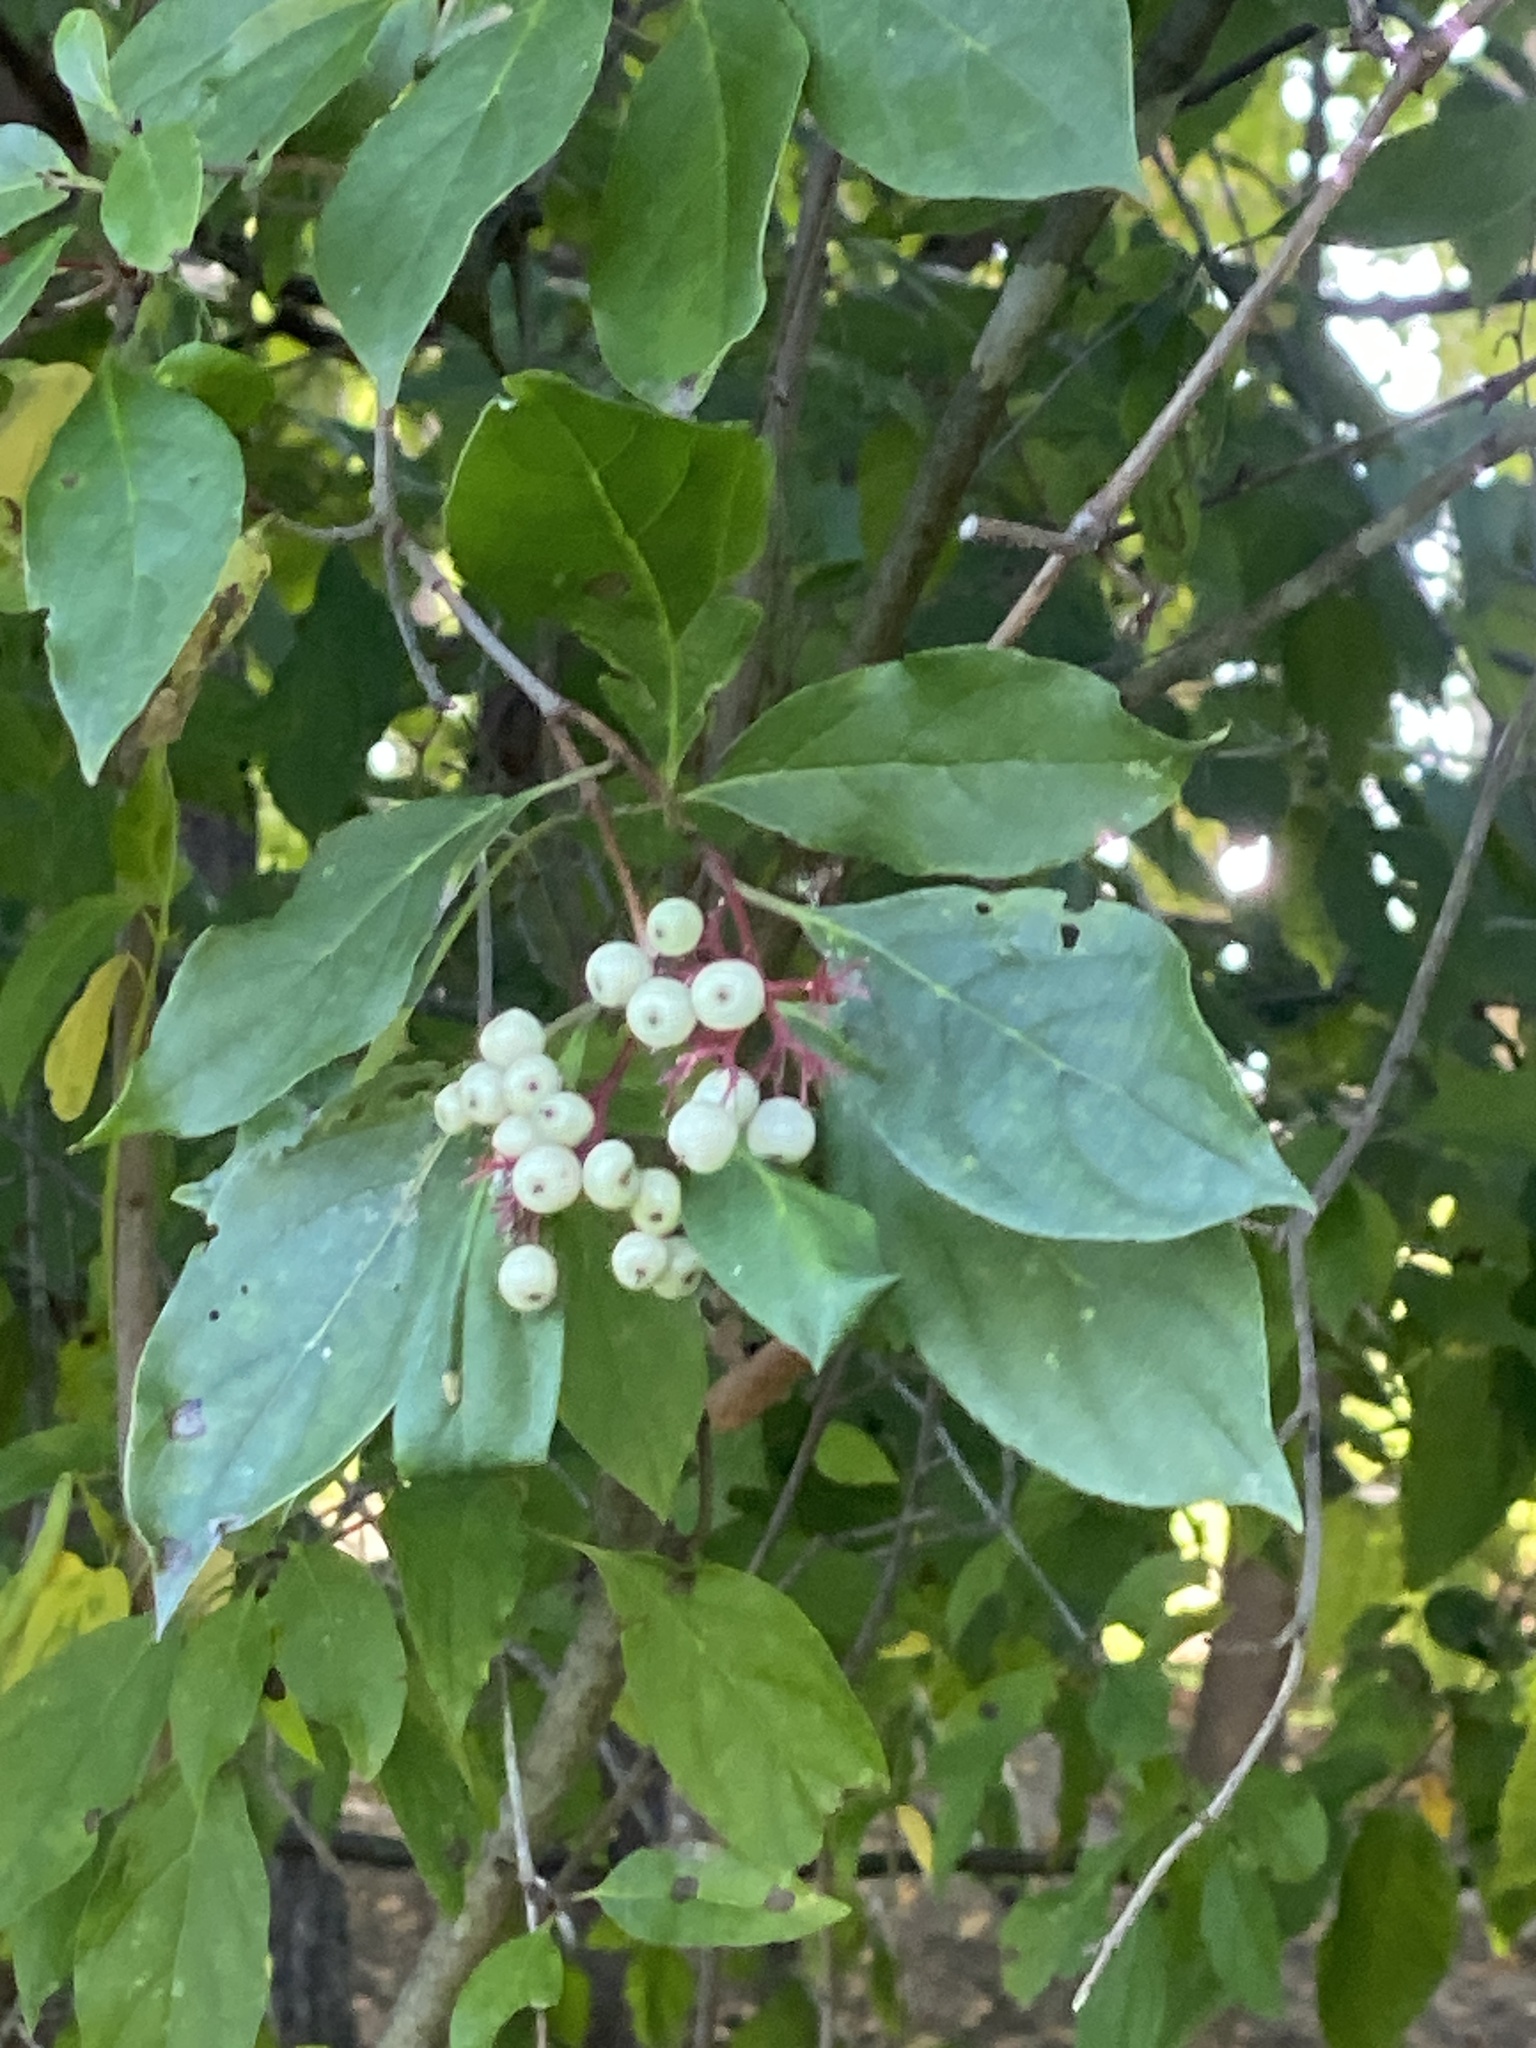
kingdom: Plantae
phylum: Tracheophyta
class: Magnoliopsida
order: Cornales
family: Cornaceae
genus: Cornus
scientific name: Cornus racemosa
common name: Panicled dogwood
